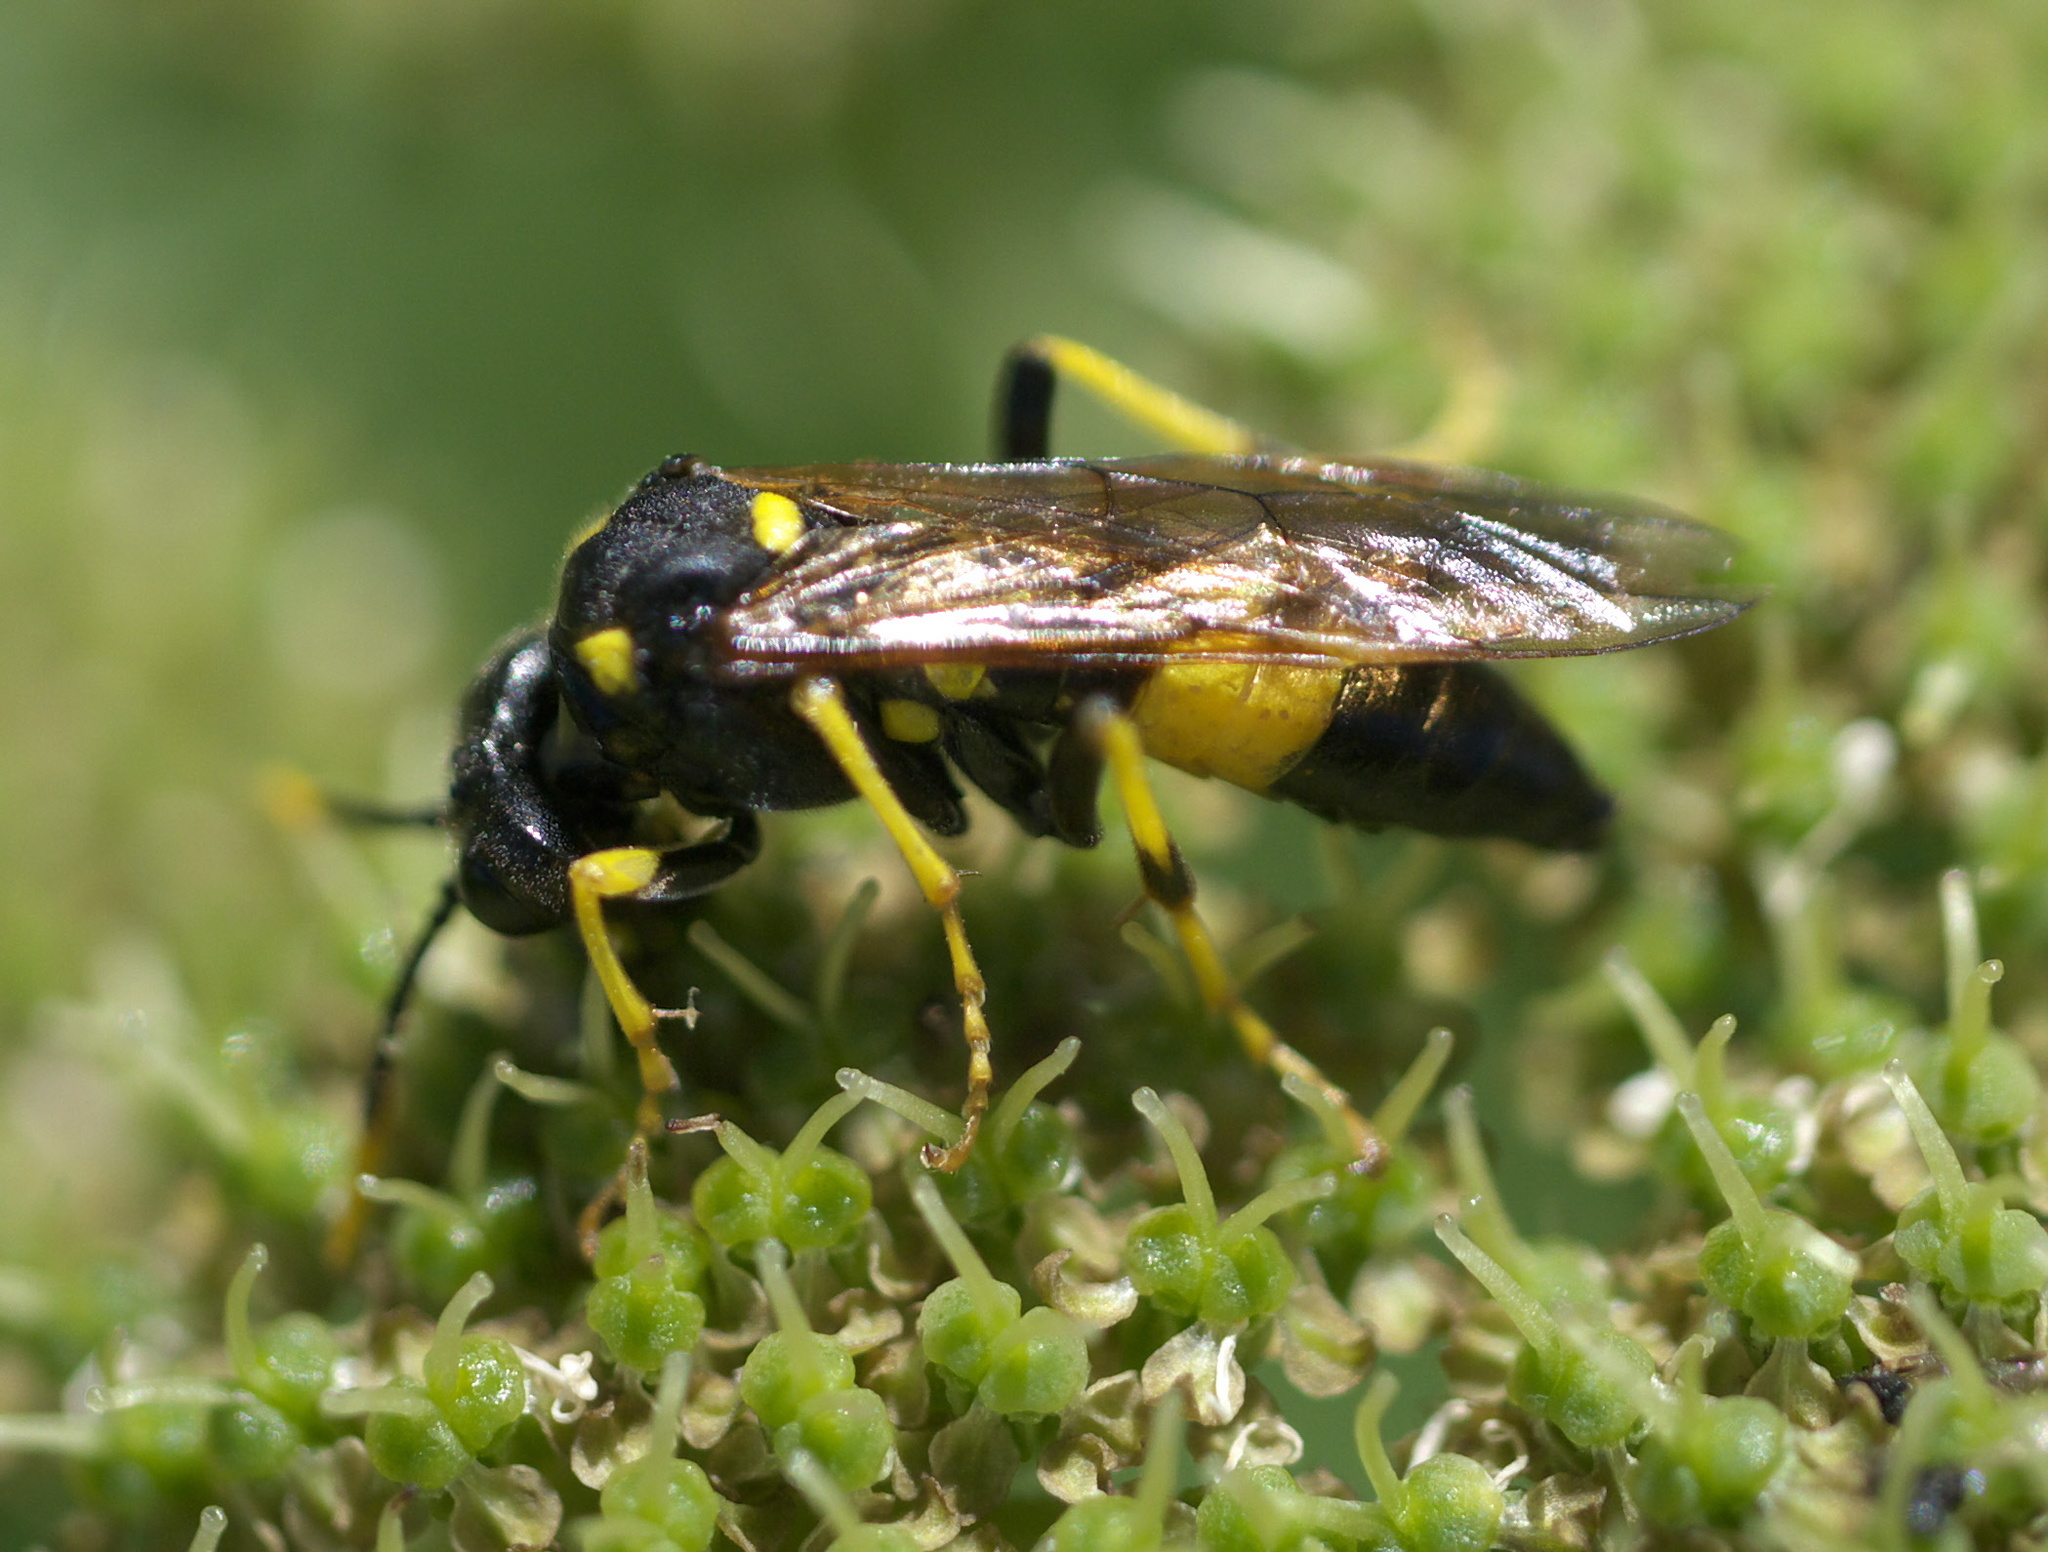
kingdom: Animalia
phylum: Arthropoda
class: Insecta
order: Hymenoptera
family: Tenthredinidae
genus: Tenthredo
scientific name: Tenthredo maxima
